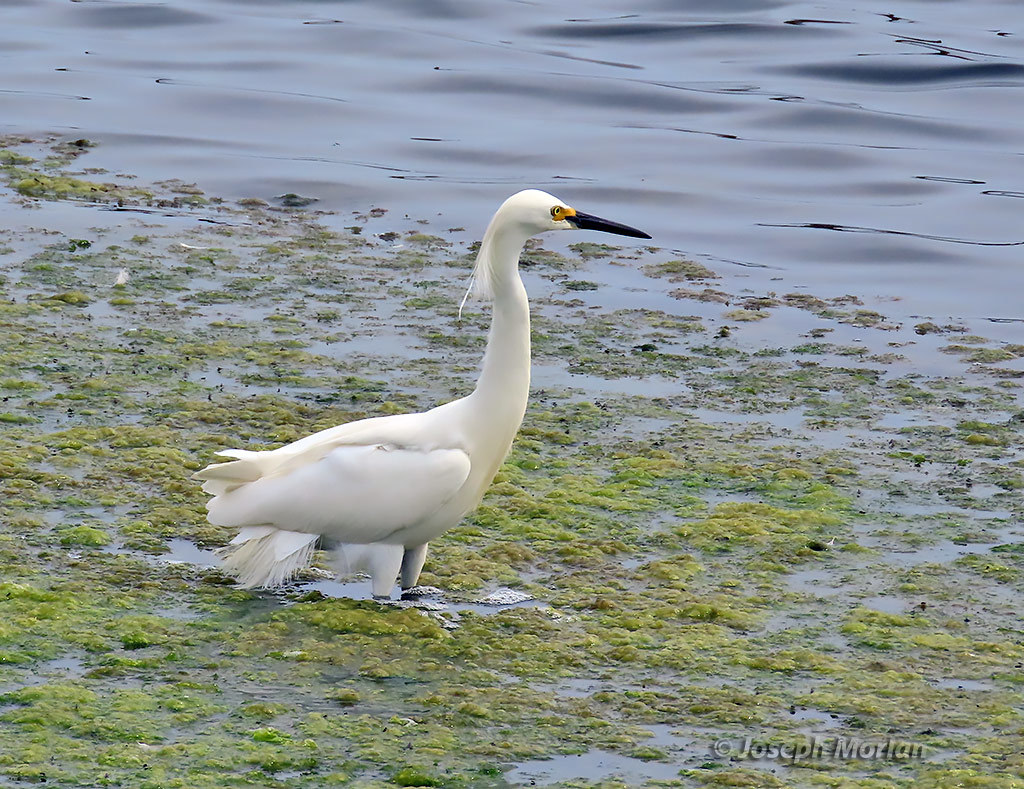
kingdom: Animalia
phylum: Chordata
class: Aves
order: Pelecaniformes
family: Ardeidae
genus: Egretta
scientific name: Egretta thula
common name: Snowy egret
